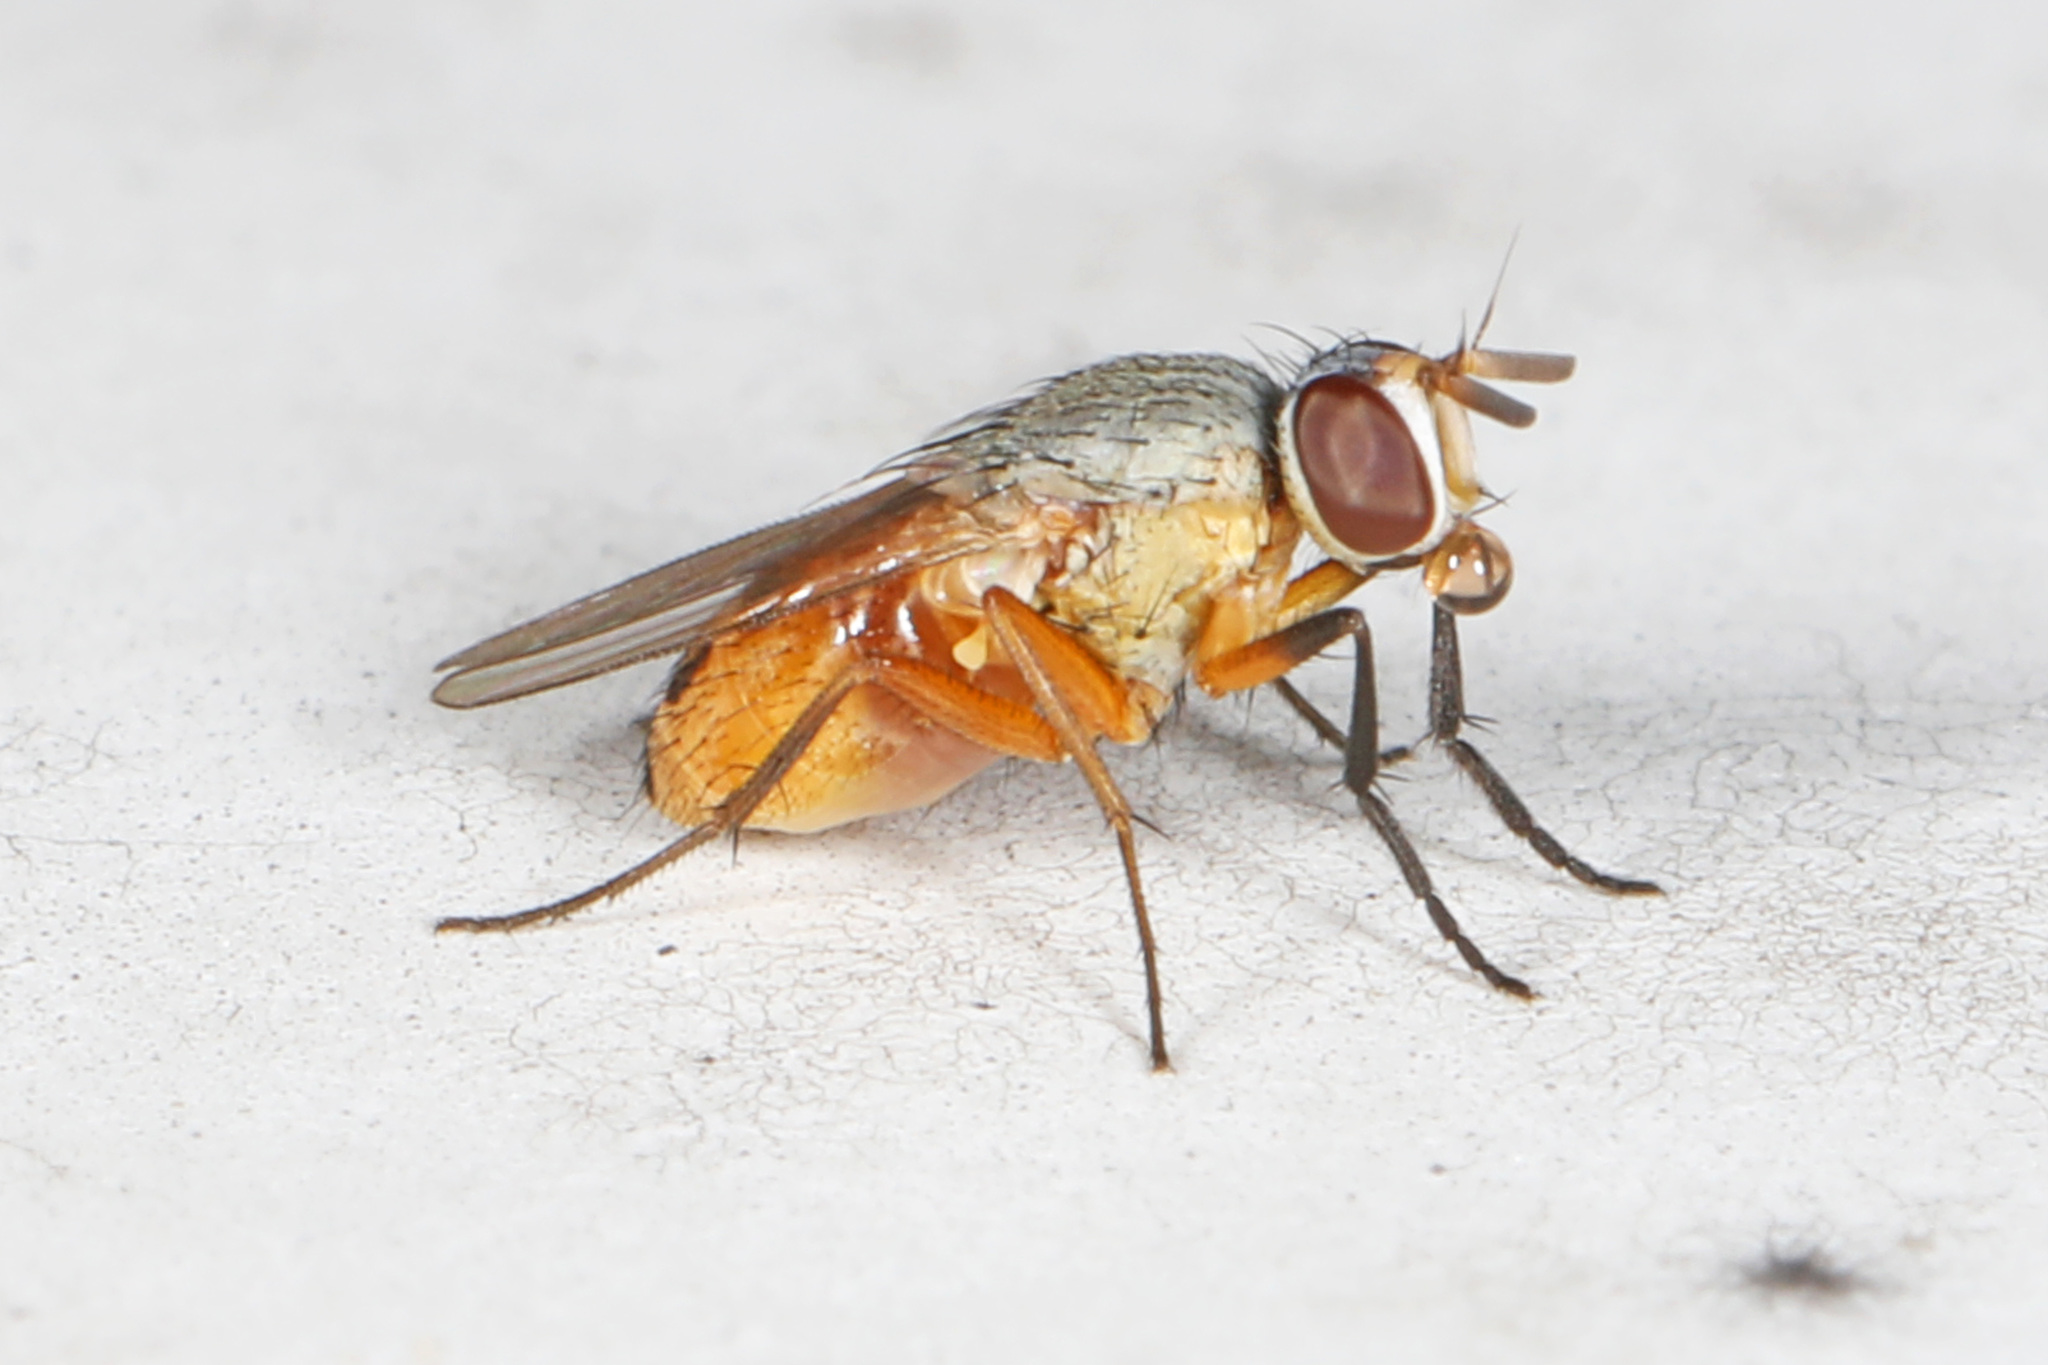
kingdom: Animalia
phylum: Arthropoda
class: Insecta
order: Diptera
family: Muscidae
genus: Atherigona
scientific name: Atherigona reversura
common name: Bermudagrass stem maggot
